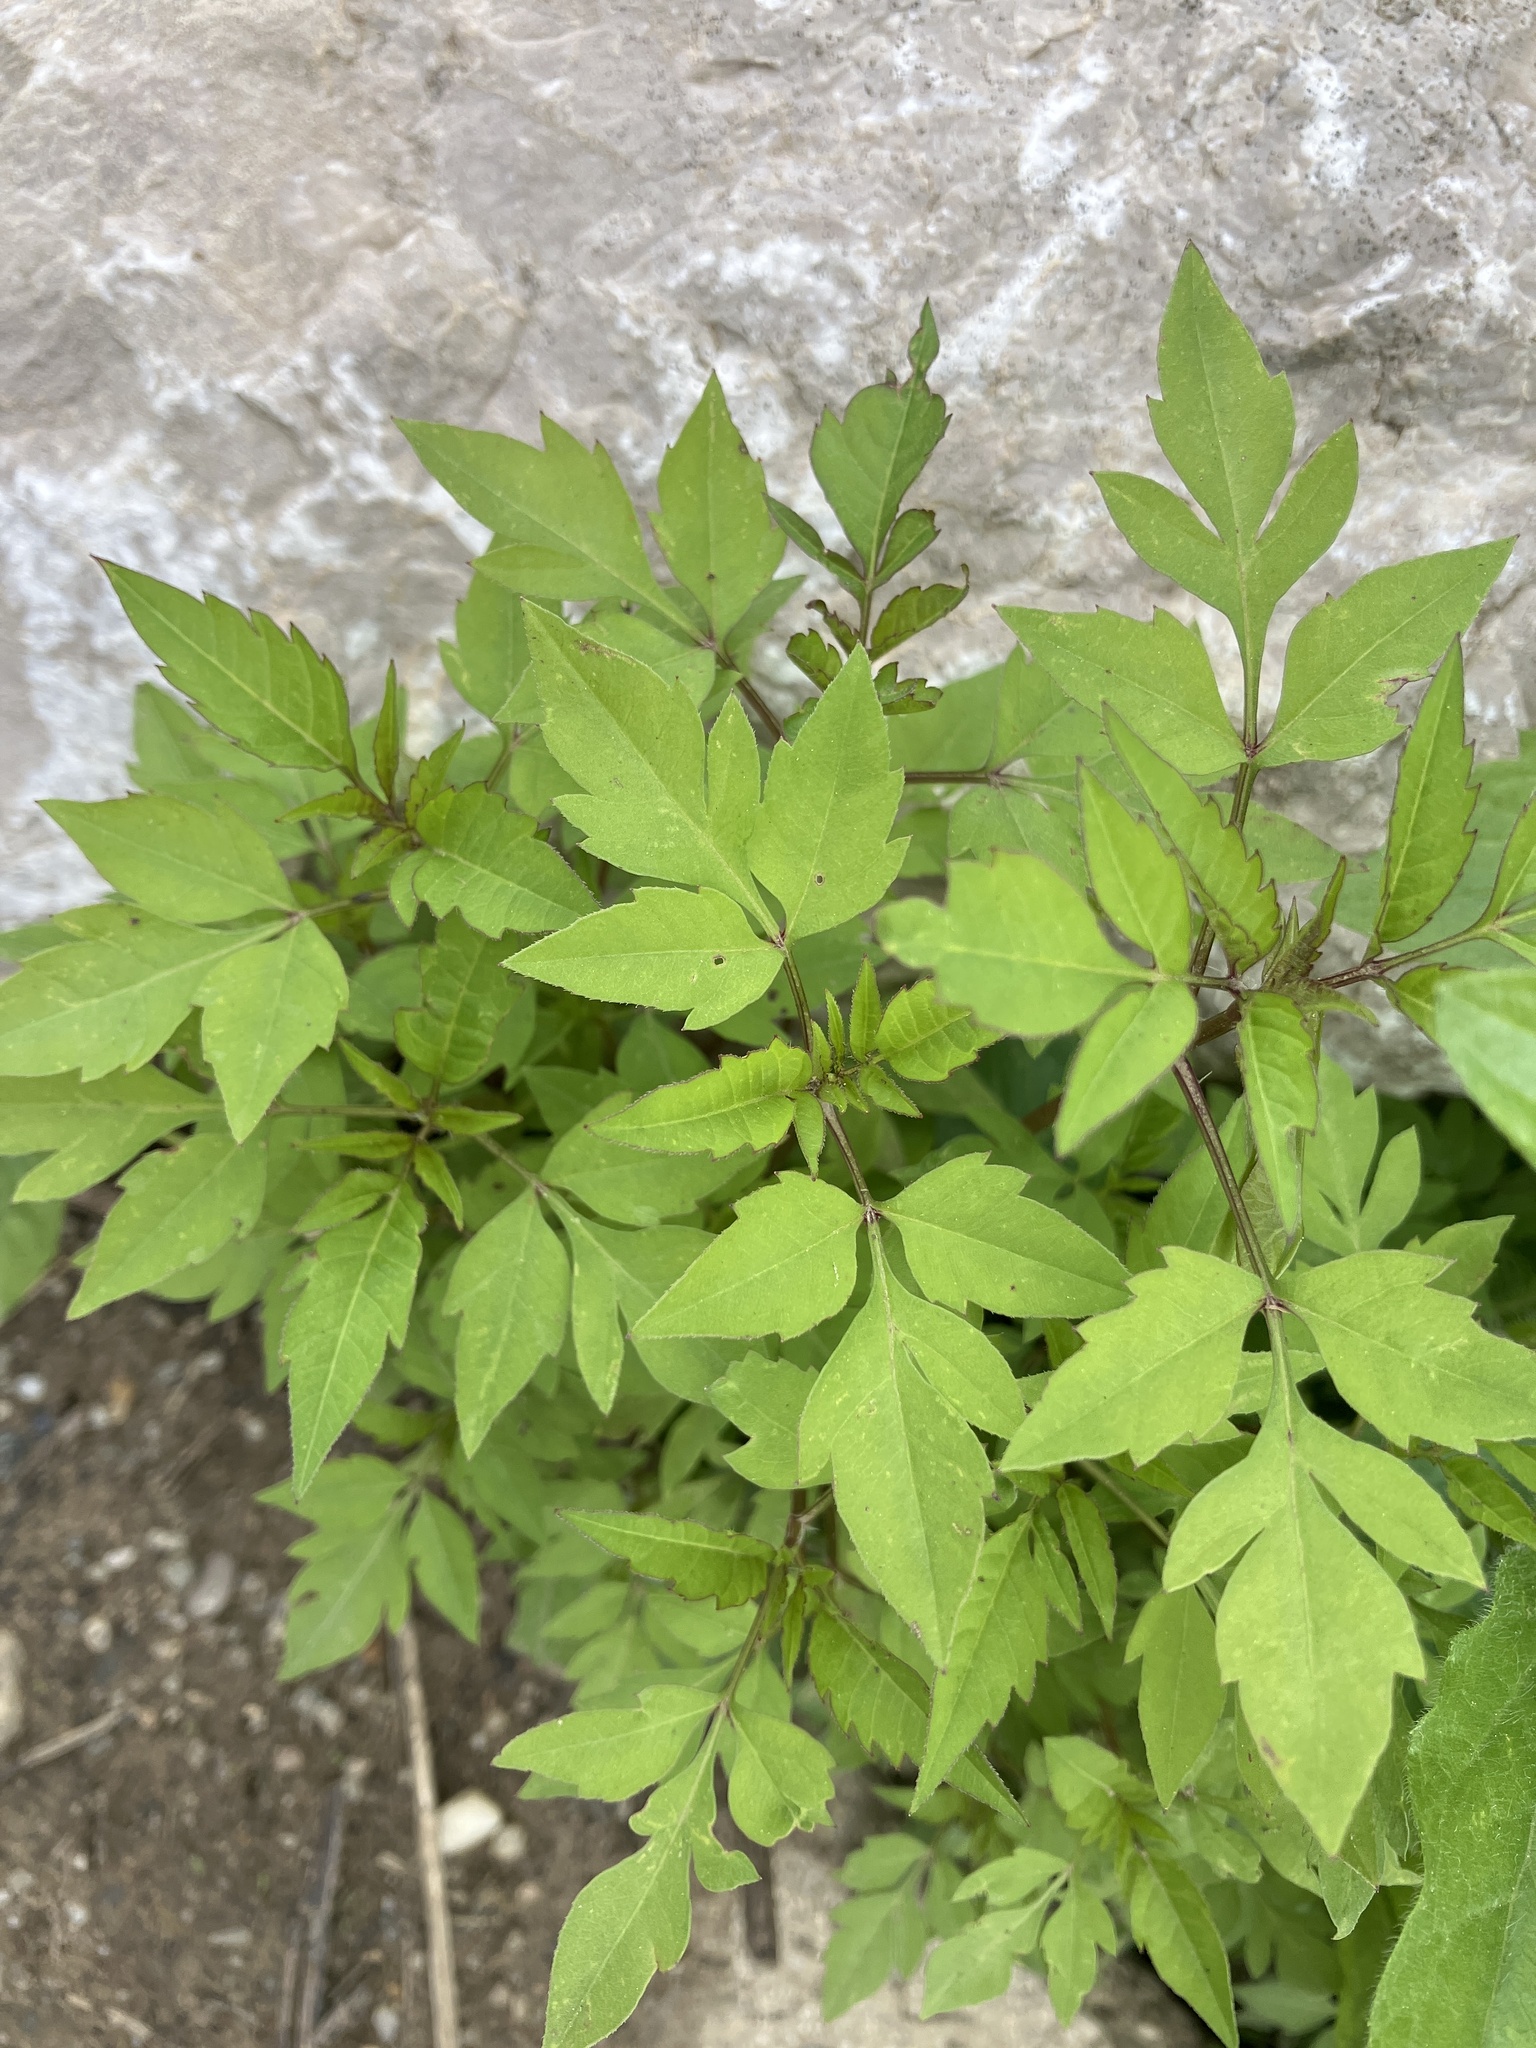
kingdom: Plantae
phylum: Tracheophyta
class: Magnoliopsida
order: Asterales
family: Asteraceae
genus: Bidens
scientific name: Bidens frondosa
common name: Beggarticks
